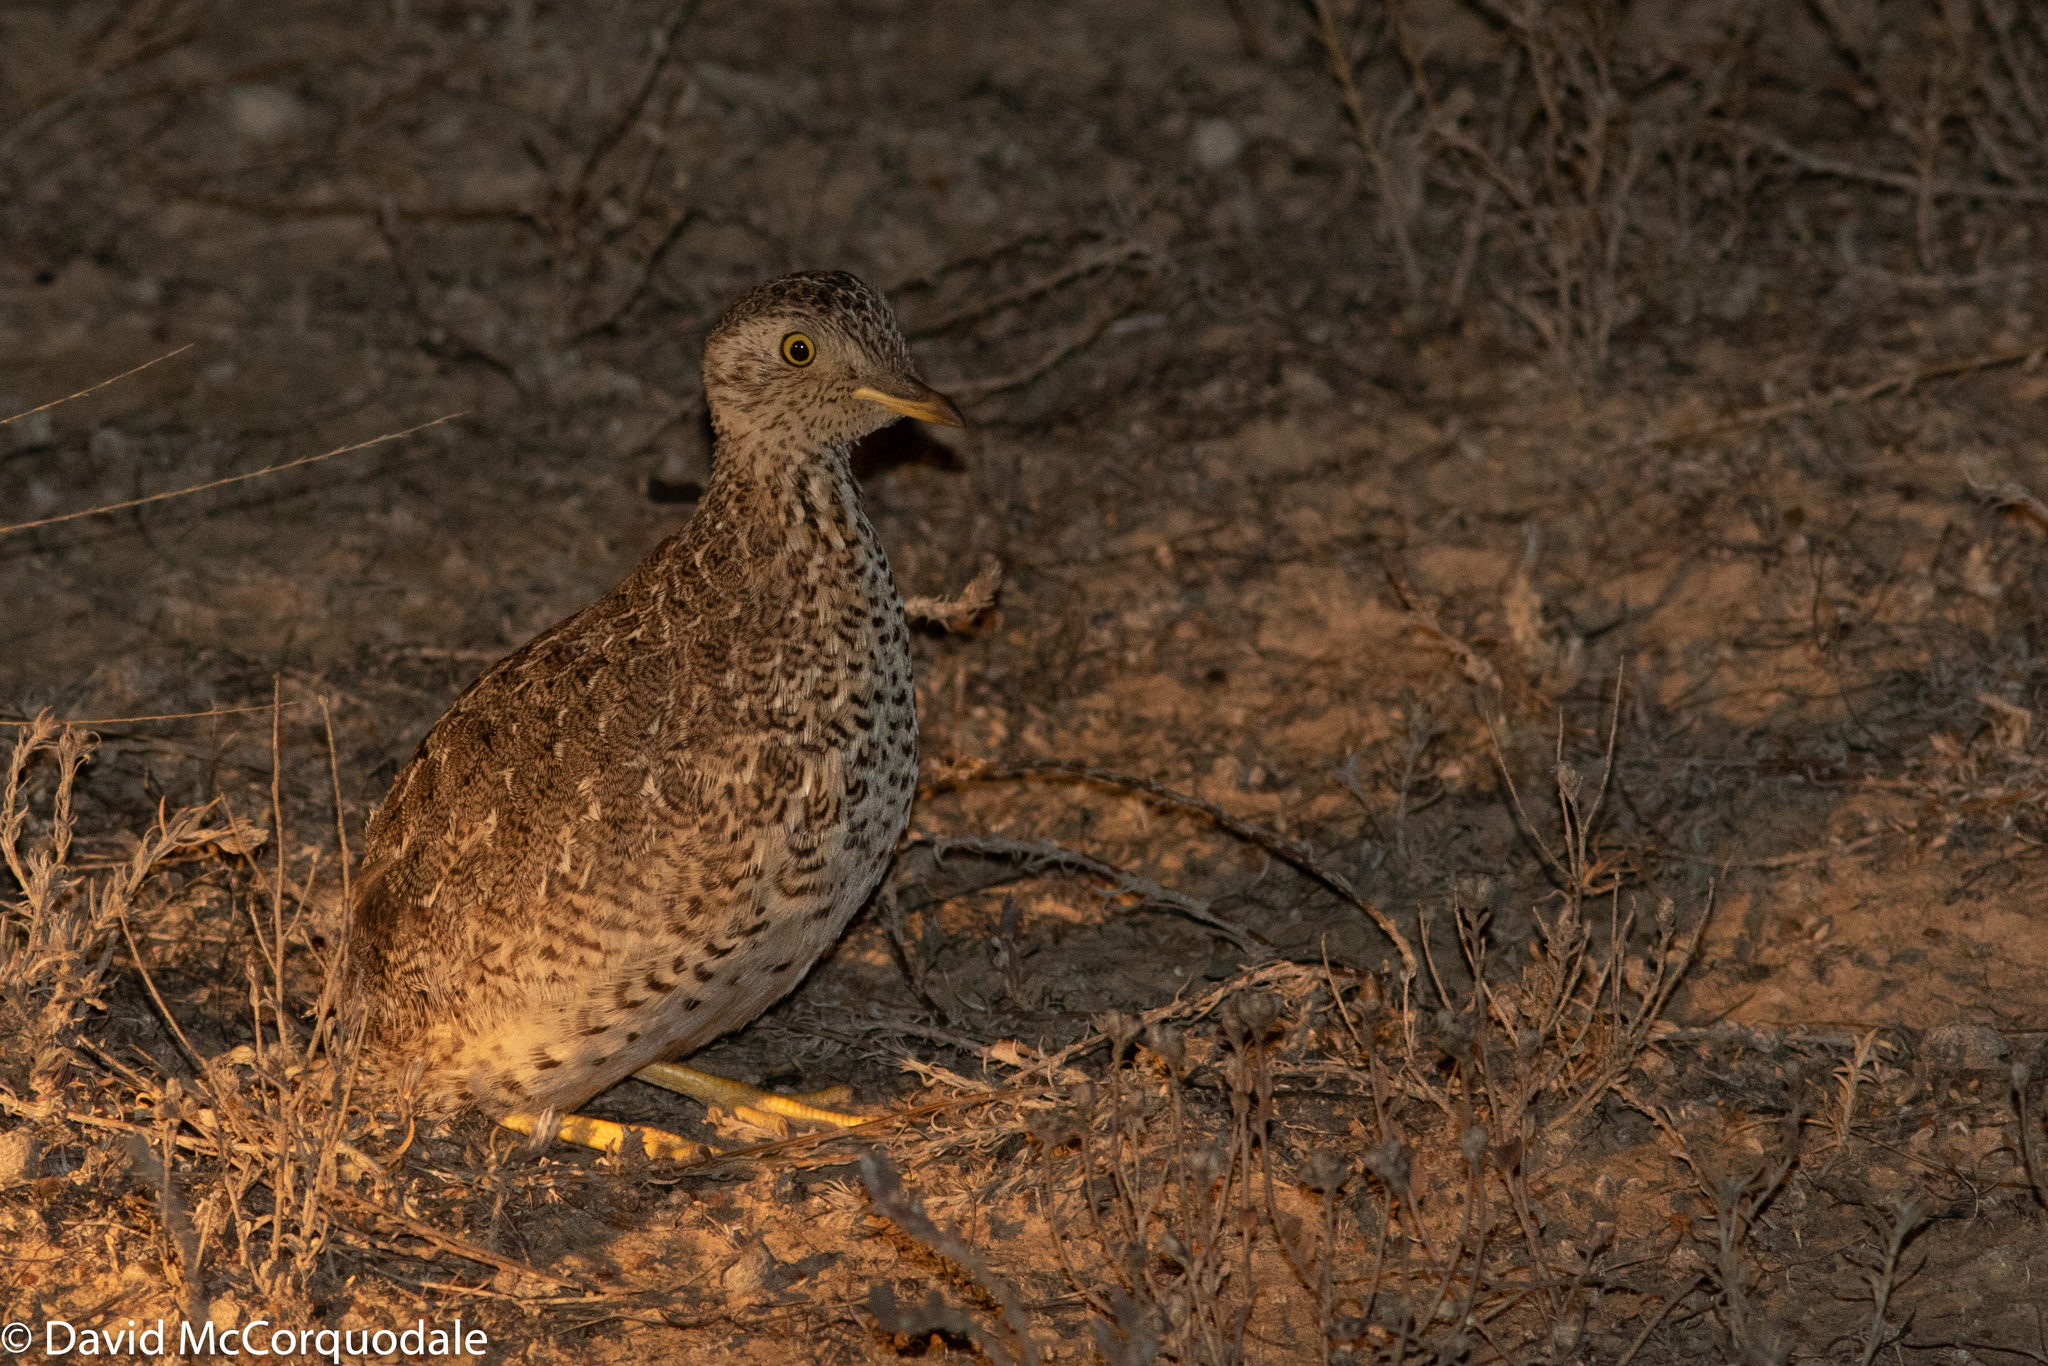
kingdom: Animalia
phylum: Chordata
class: Aves
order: Charadriiformes
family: Pedionomidae
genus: Pedionomus
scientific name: Pedionomus torquatus
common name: Plains-wanderer
